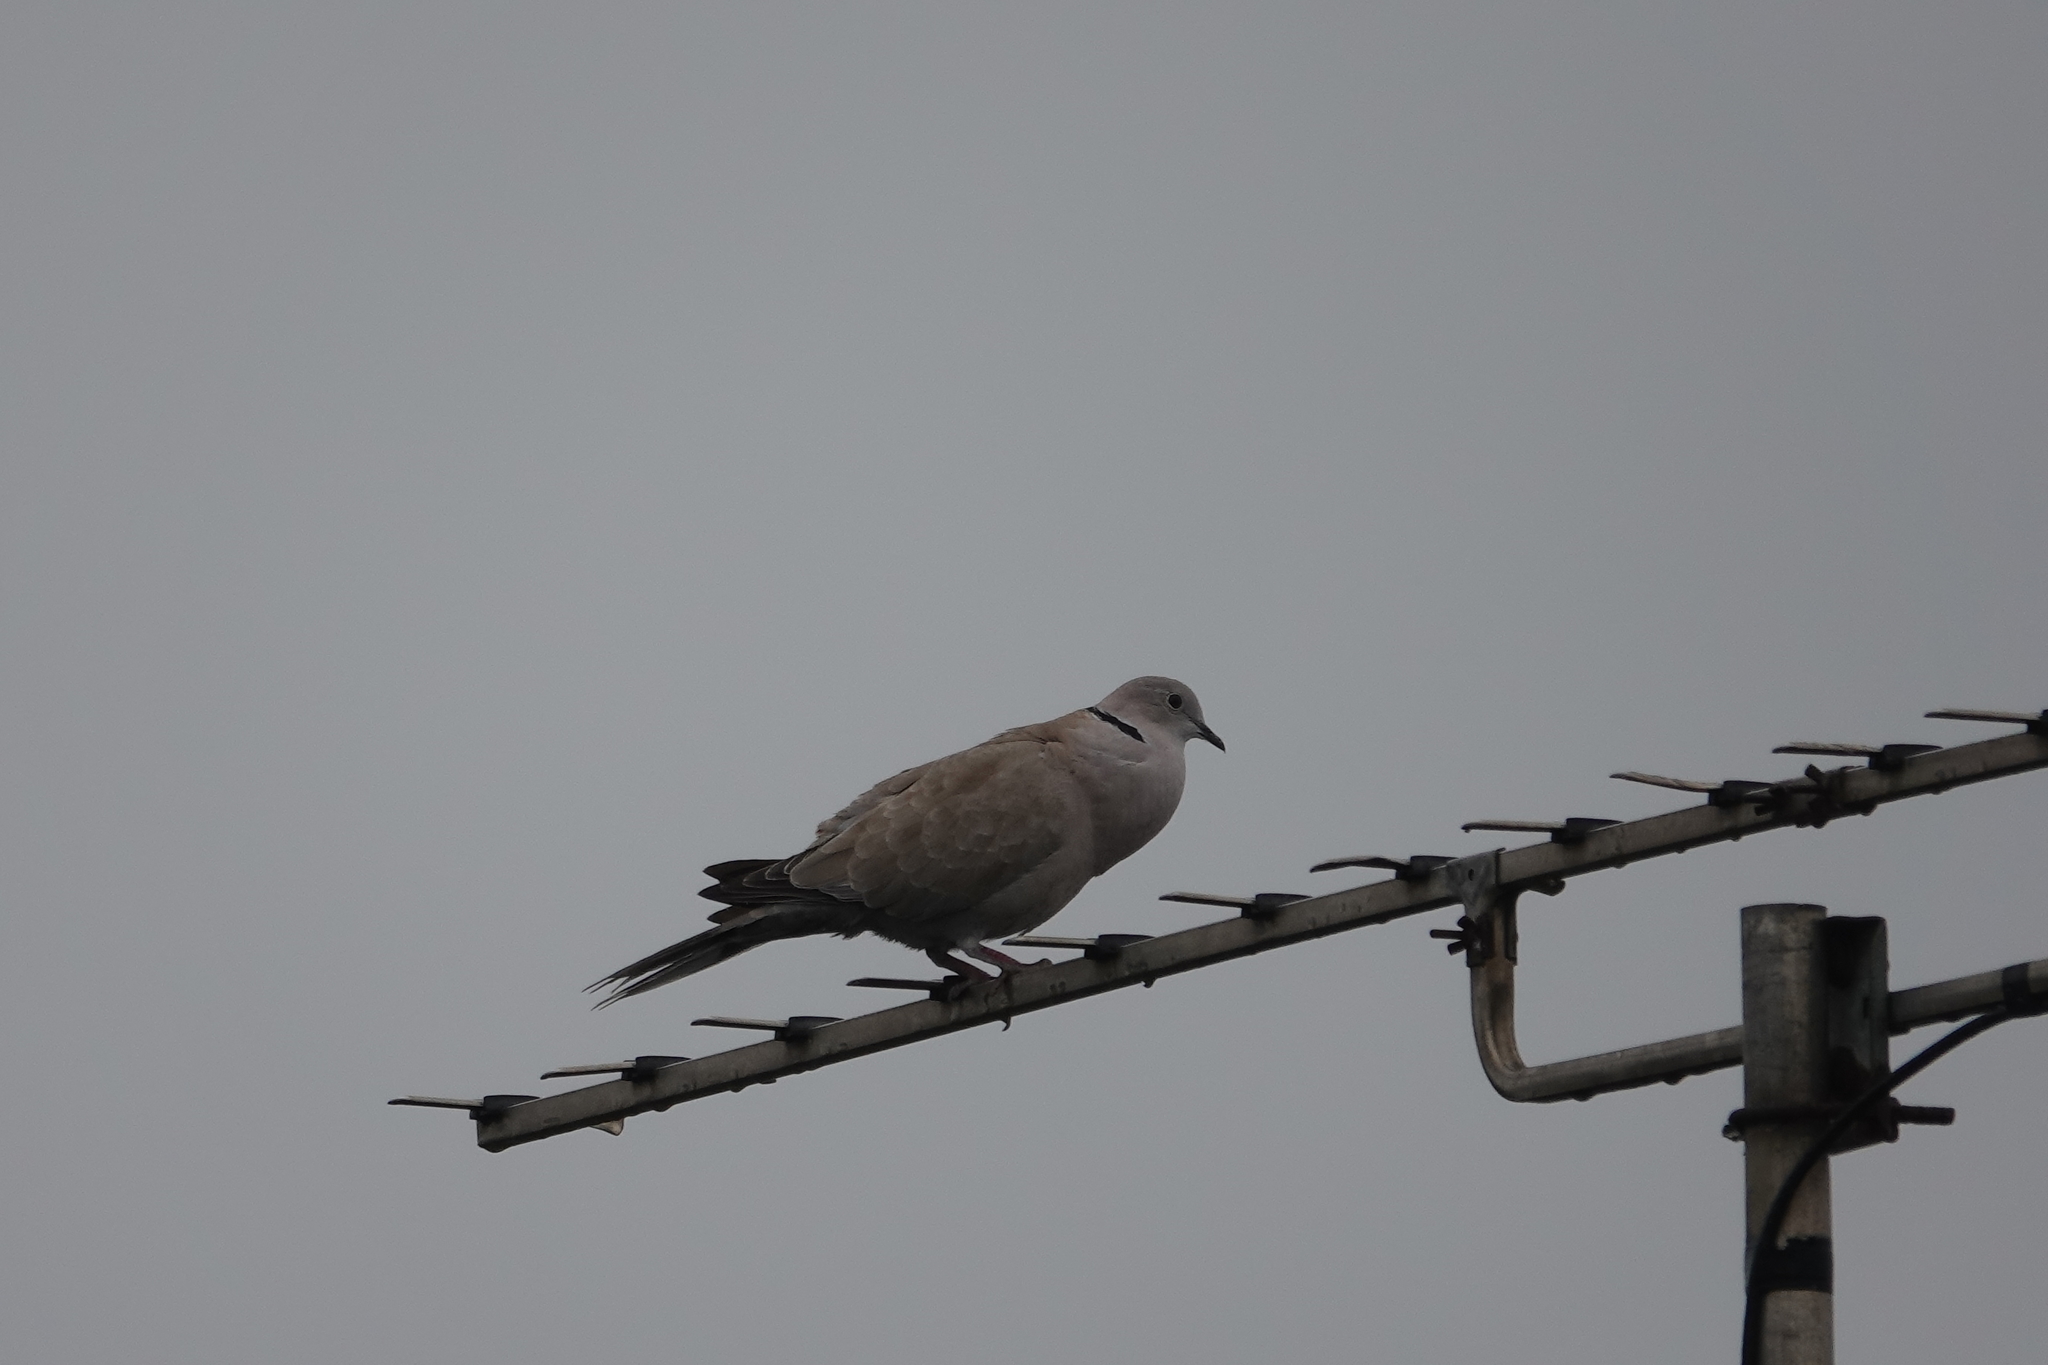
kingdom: Animalia
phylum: Chordata
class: Aves
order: Columbiformes
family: Columbidae
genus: Streptopelia
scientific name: Streptopelia decaocto
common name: Eurasian collared dove
